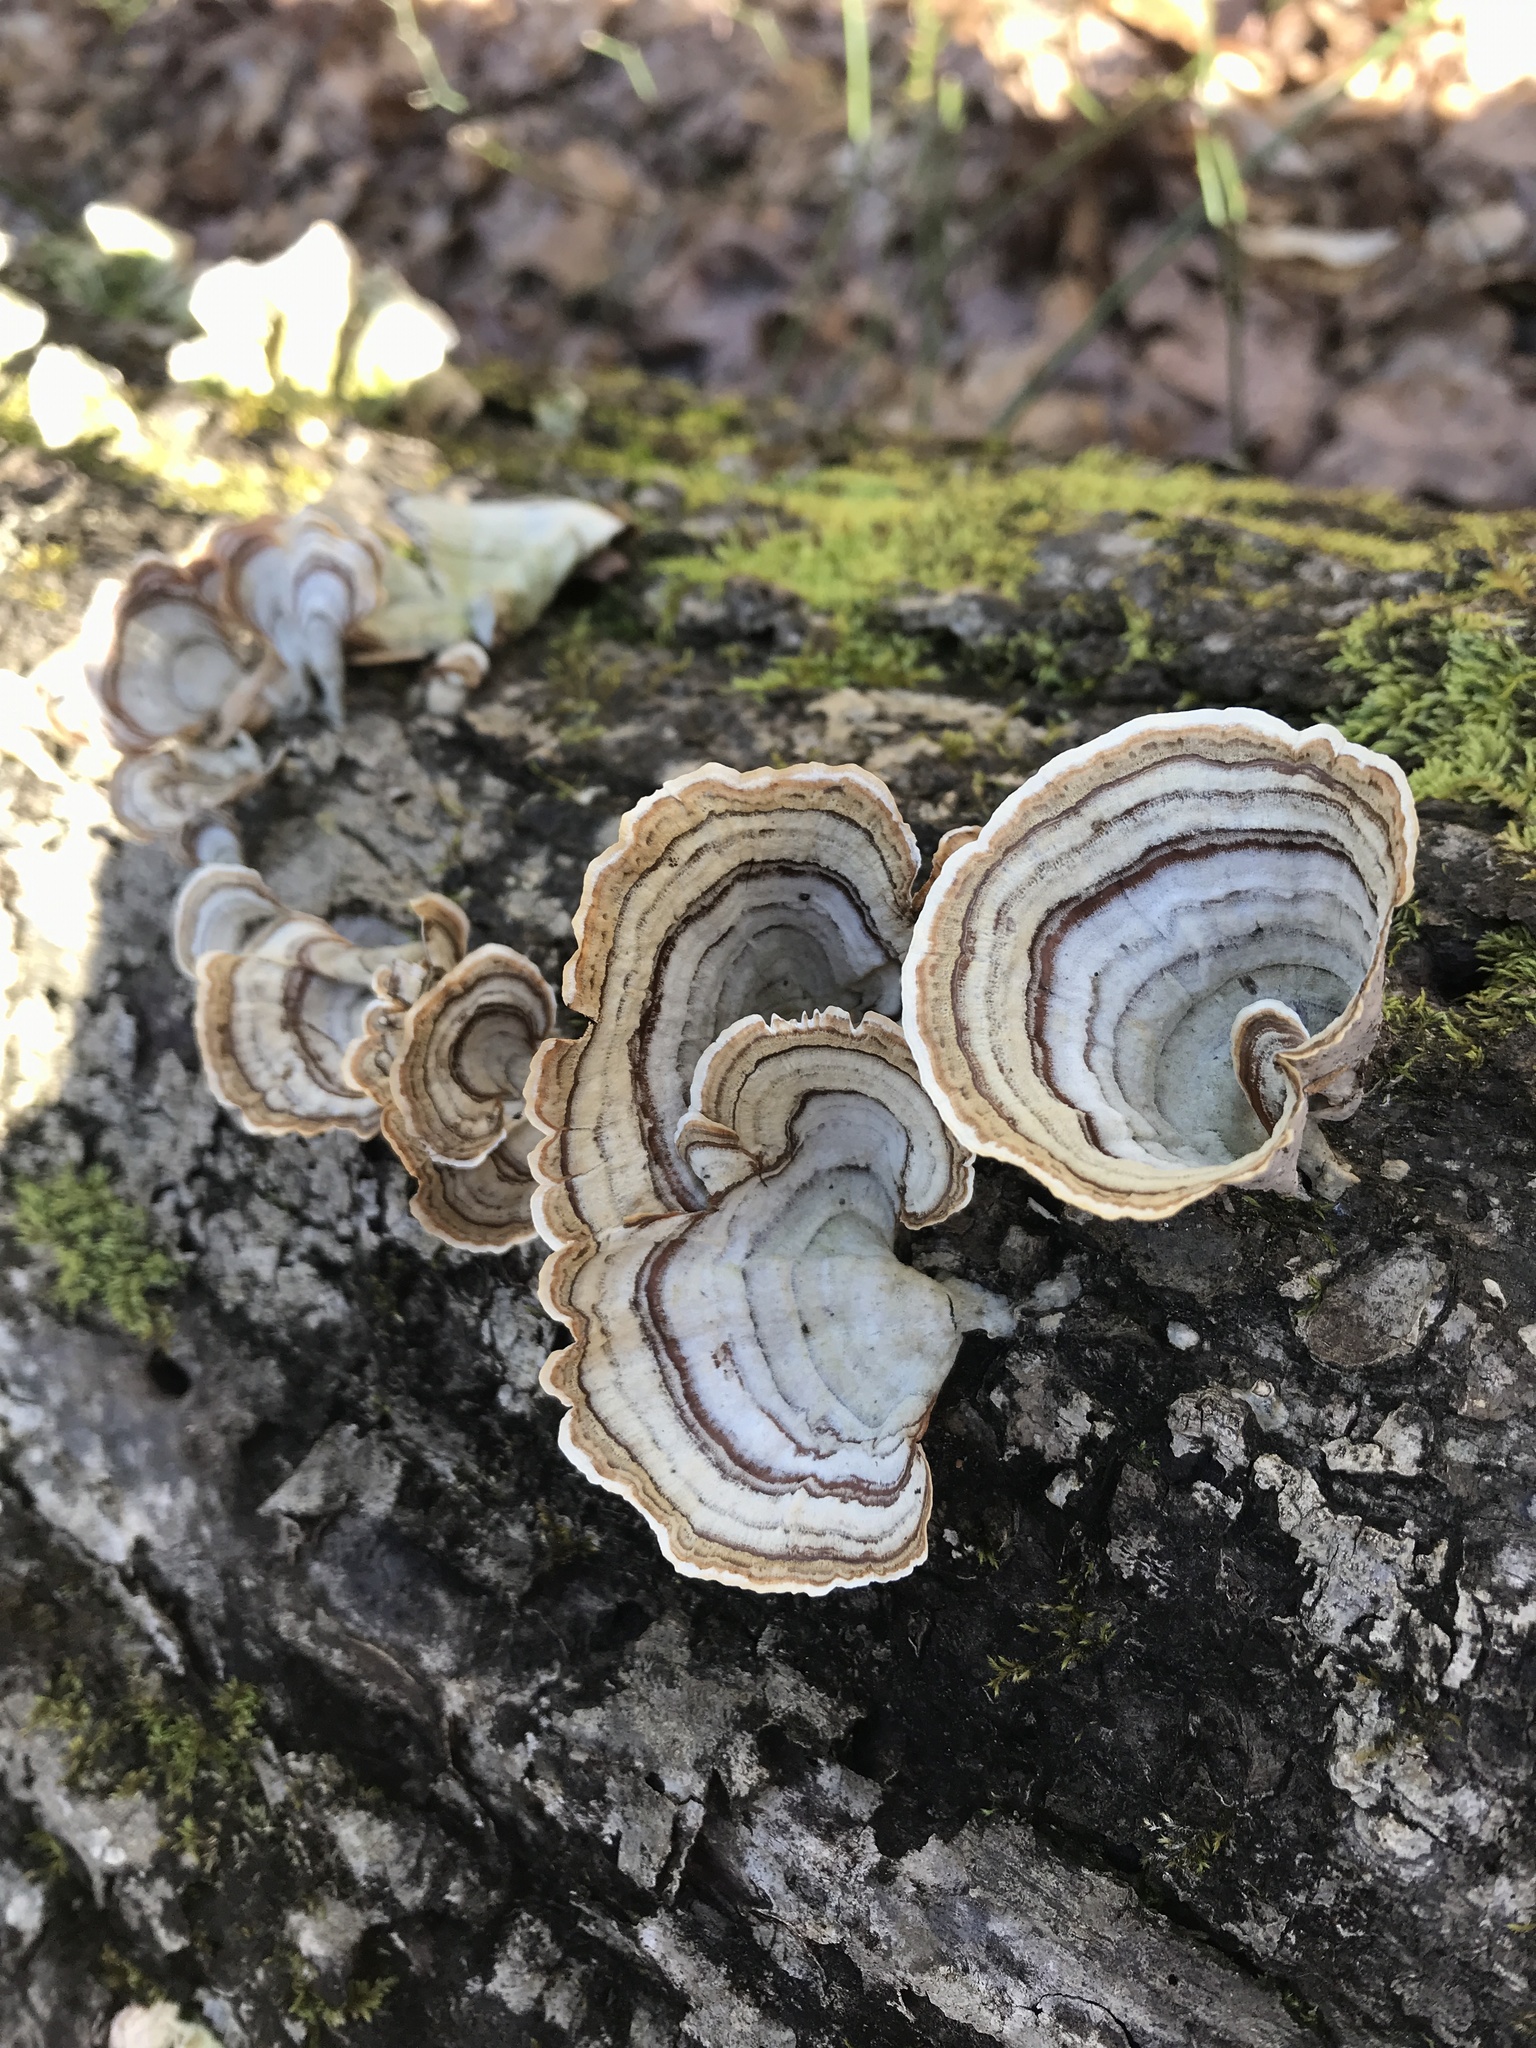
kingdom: Fungi
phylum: Basidiomycota
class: Agaricomycetes
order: Russulales
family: Stereaceae
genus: Stereum
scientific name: Stereum lobatum
